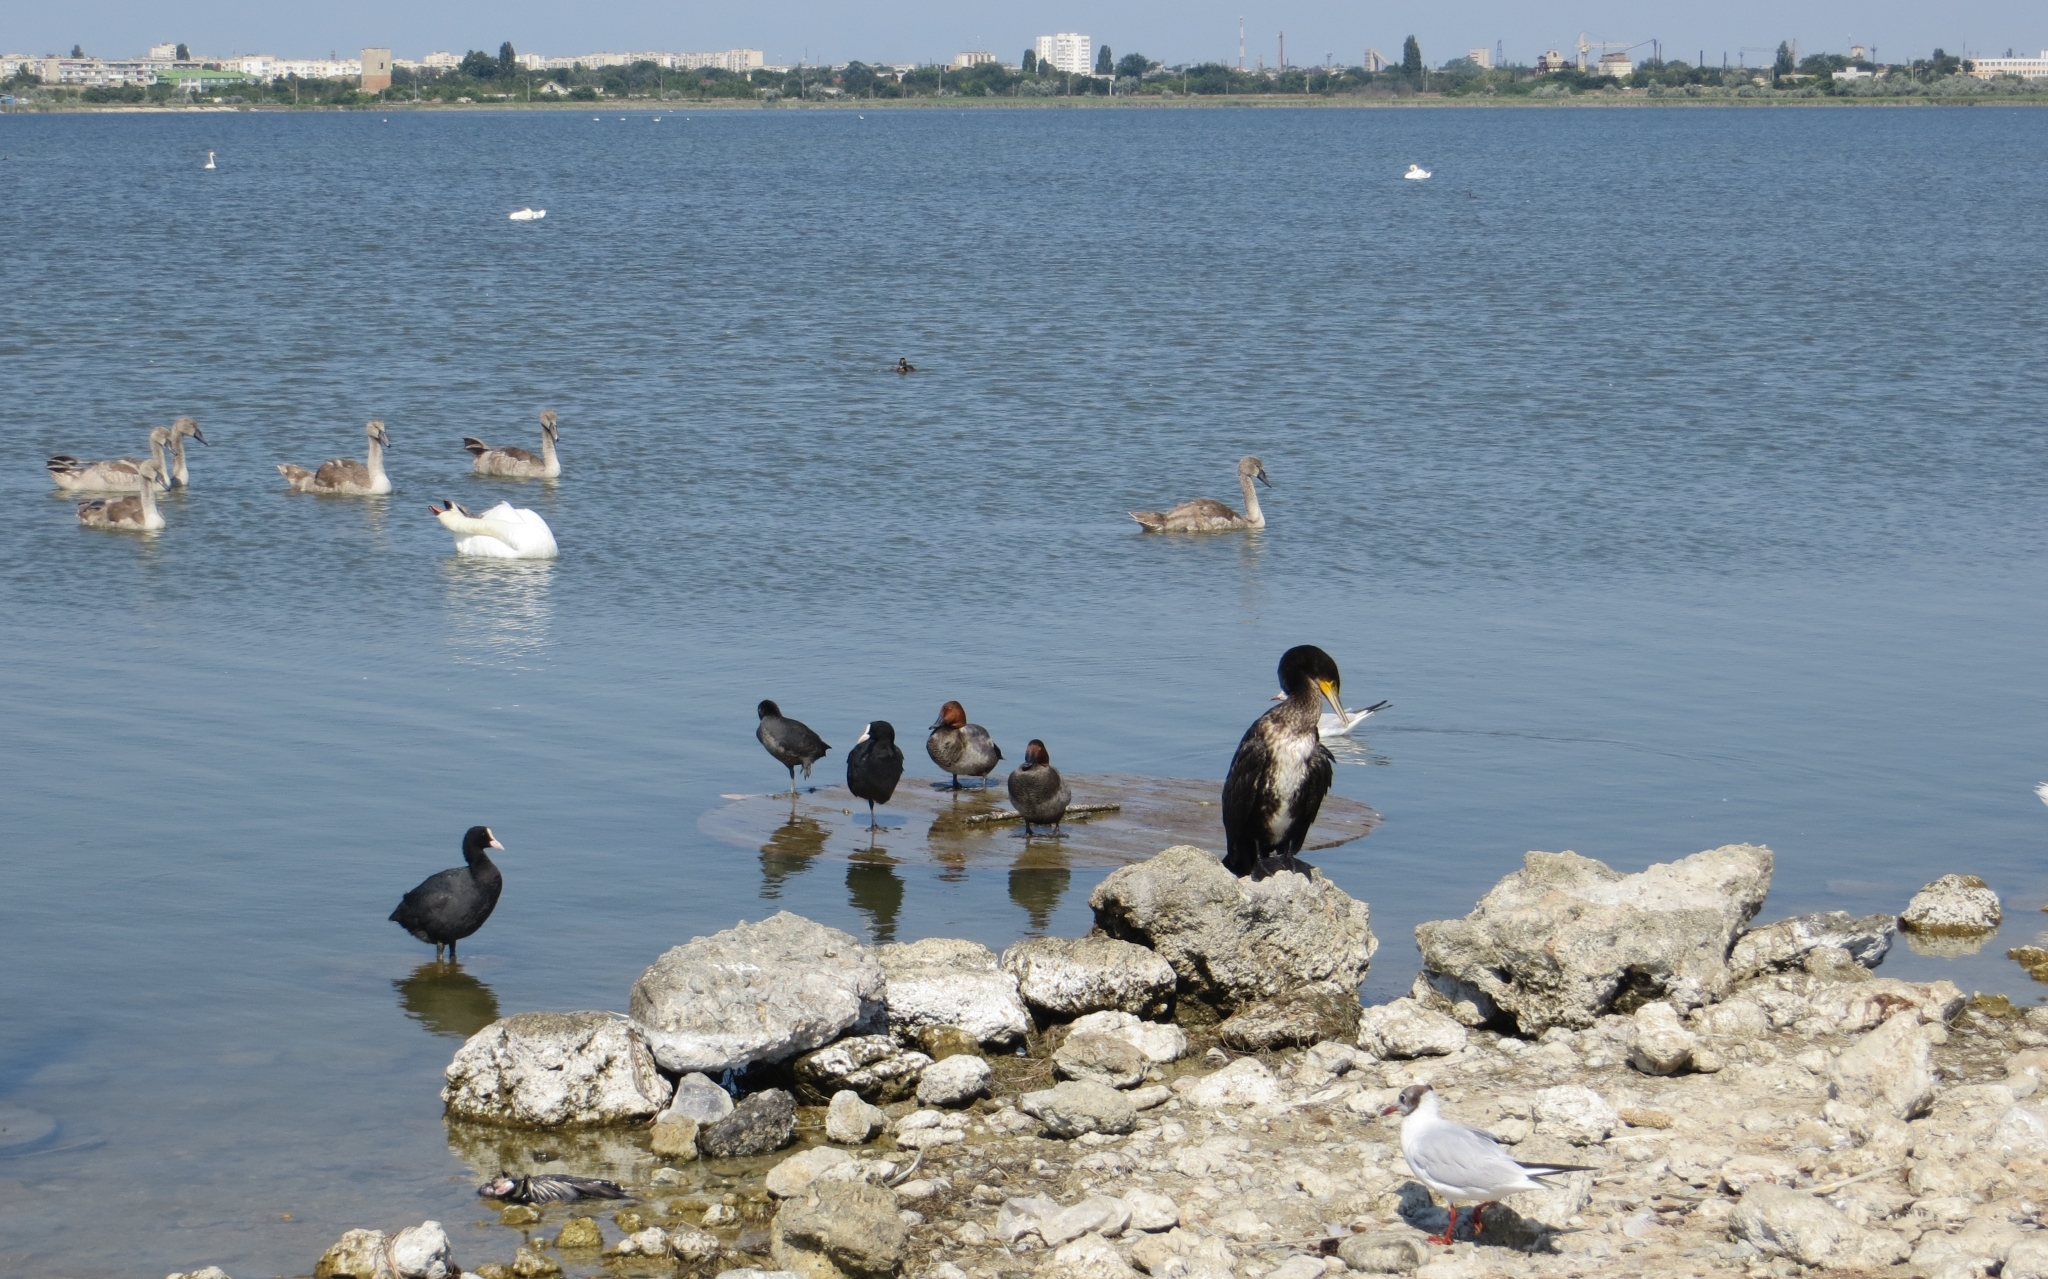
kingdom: Animalia
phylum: Chordata
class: Aves
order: Suliformes
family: Phalacrocoracidae
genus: Phalacrocorax
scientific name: Phalacrocorax carbo
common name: Great cormorant
